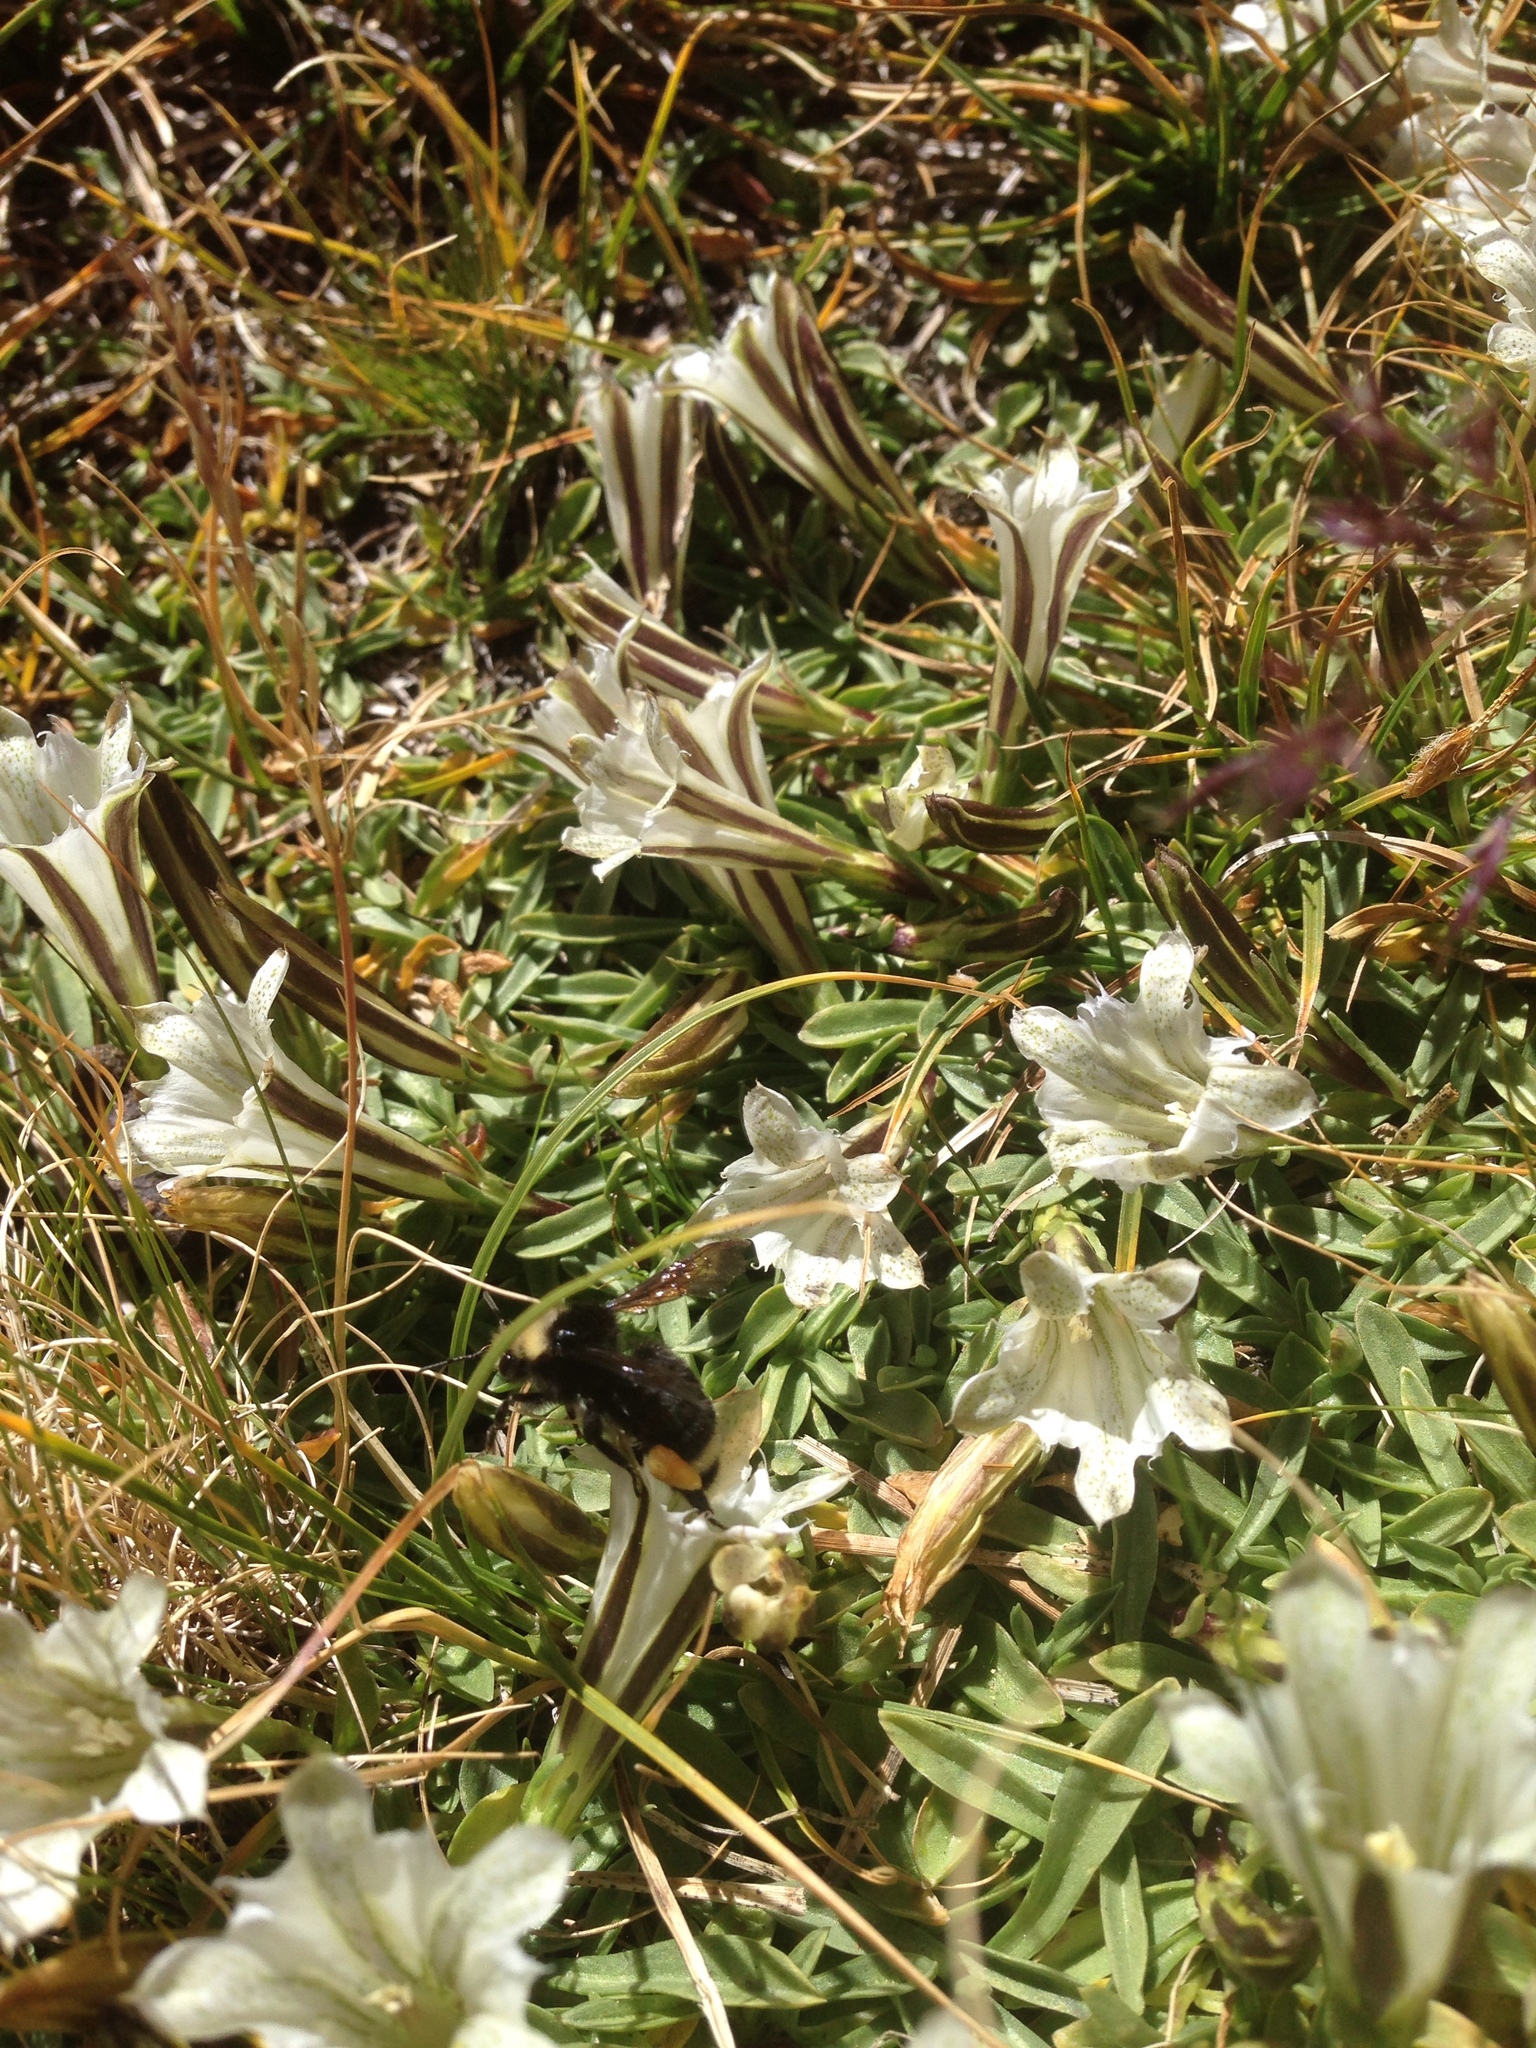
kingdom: Animalia
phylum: Arthropoda
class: Insecta
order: Hymenoptera
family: Apidae
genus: Bombus
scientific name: Bombus vosnesenskii
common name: Vosnesensky bumble bee
